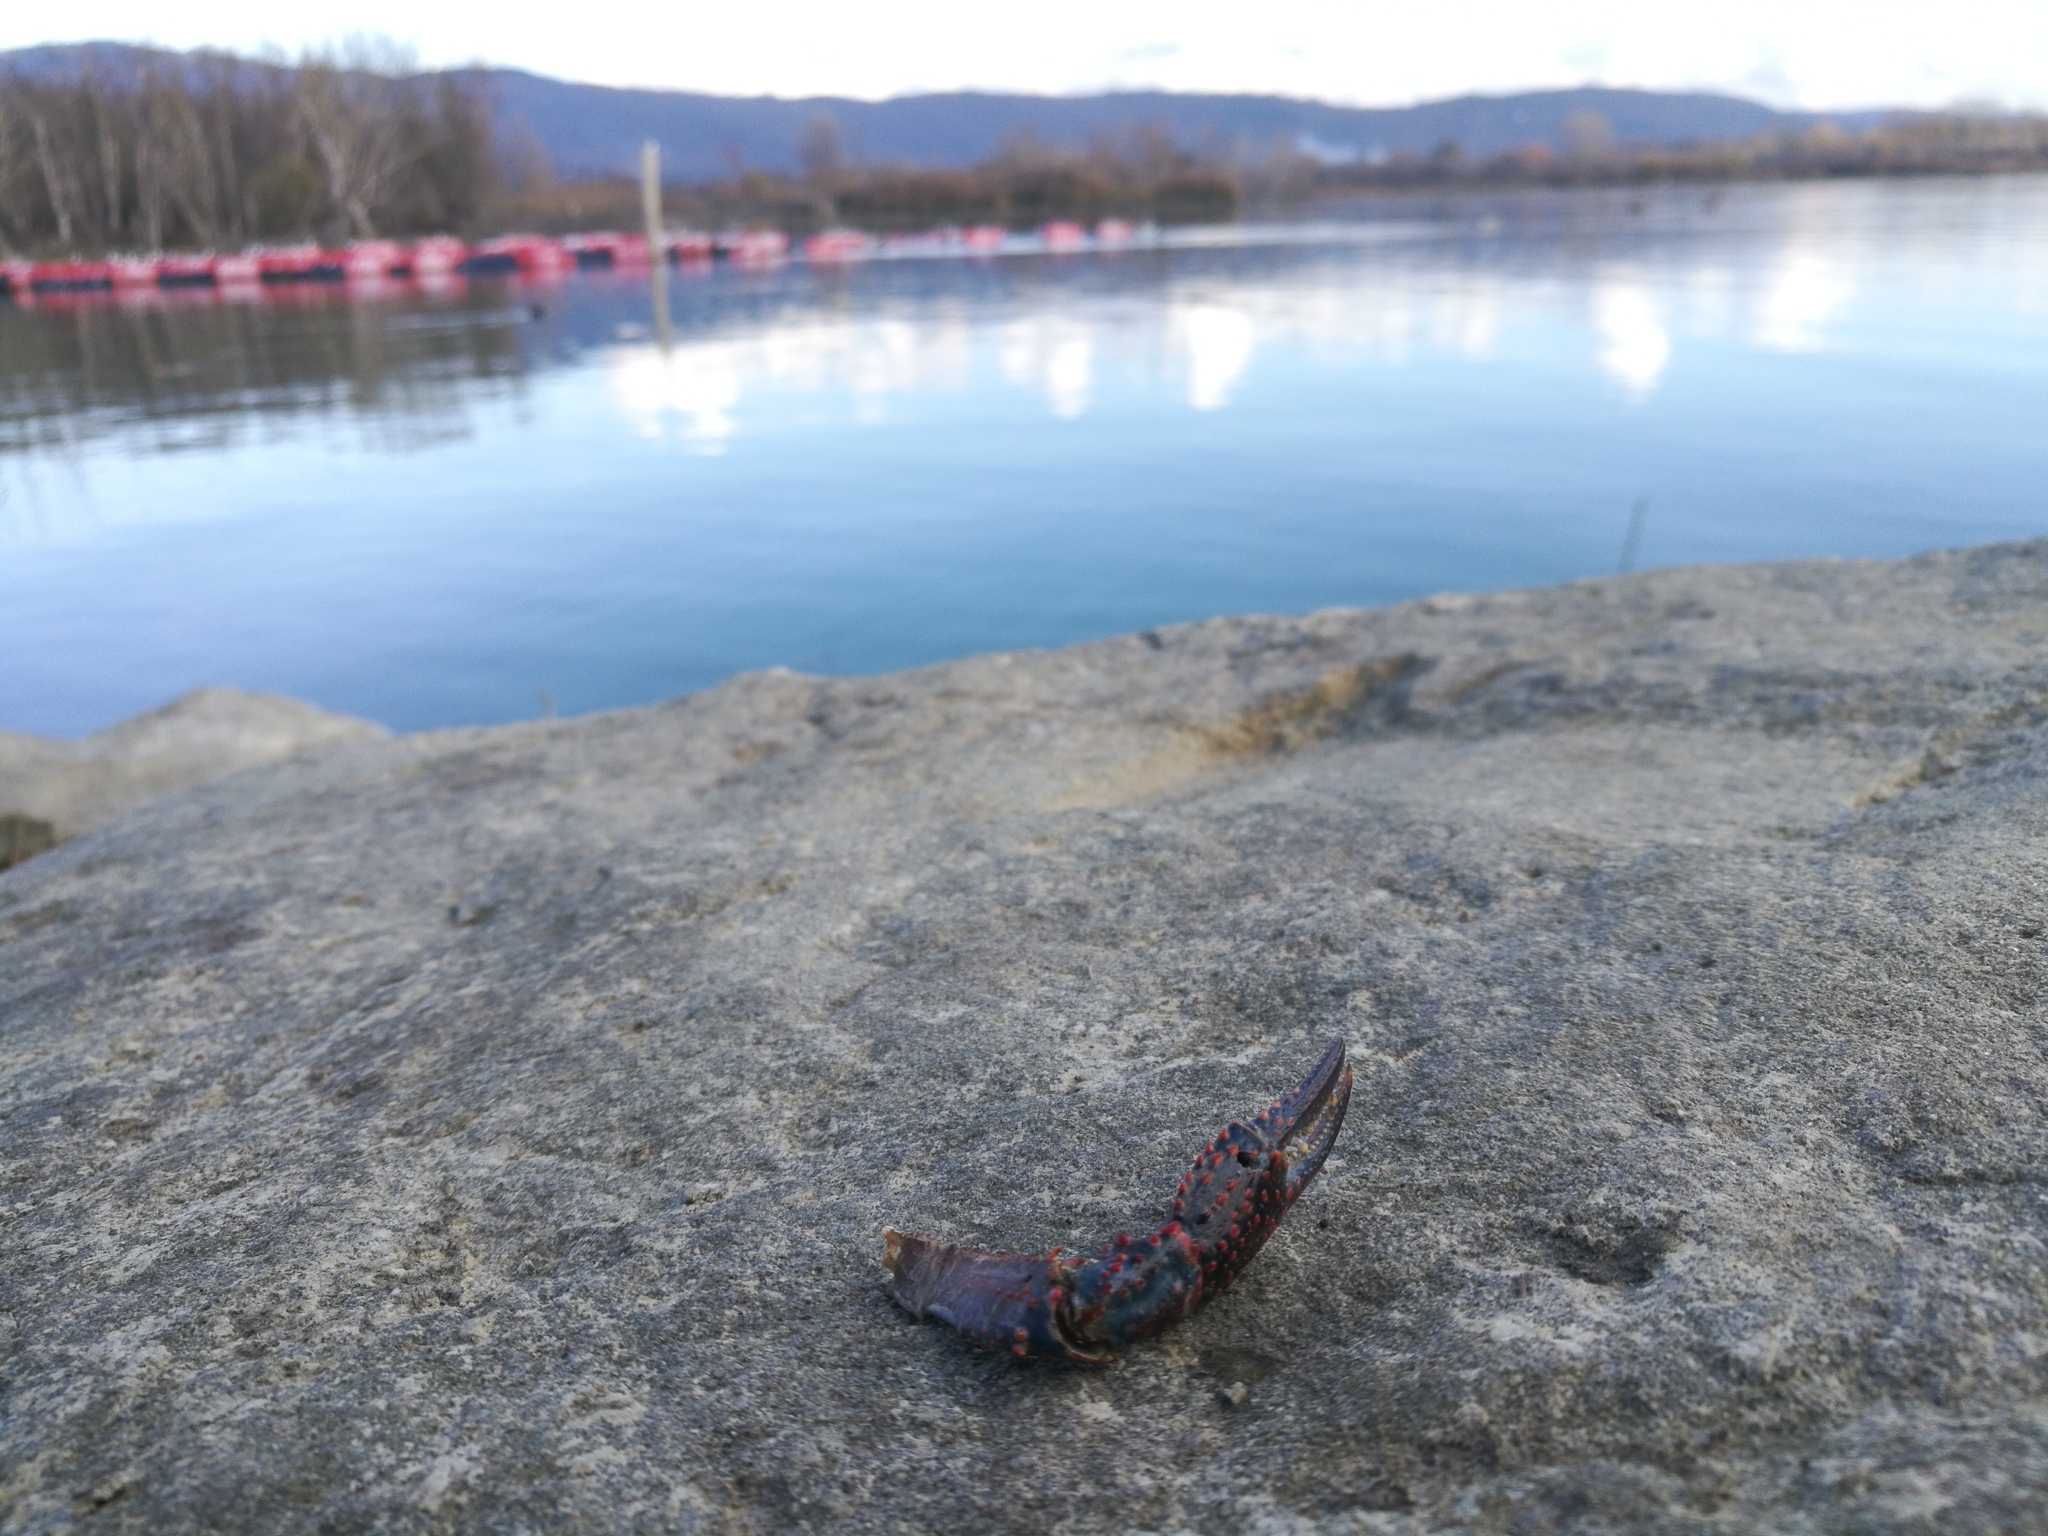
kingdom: Animalia
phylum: Arthropoda
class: Malacostraca
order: Decapoda
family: Cambaridae
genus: Procambarus
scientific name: Procambarus clarkii
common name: Red swamp crayfish
